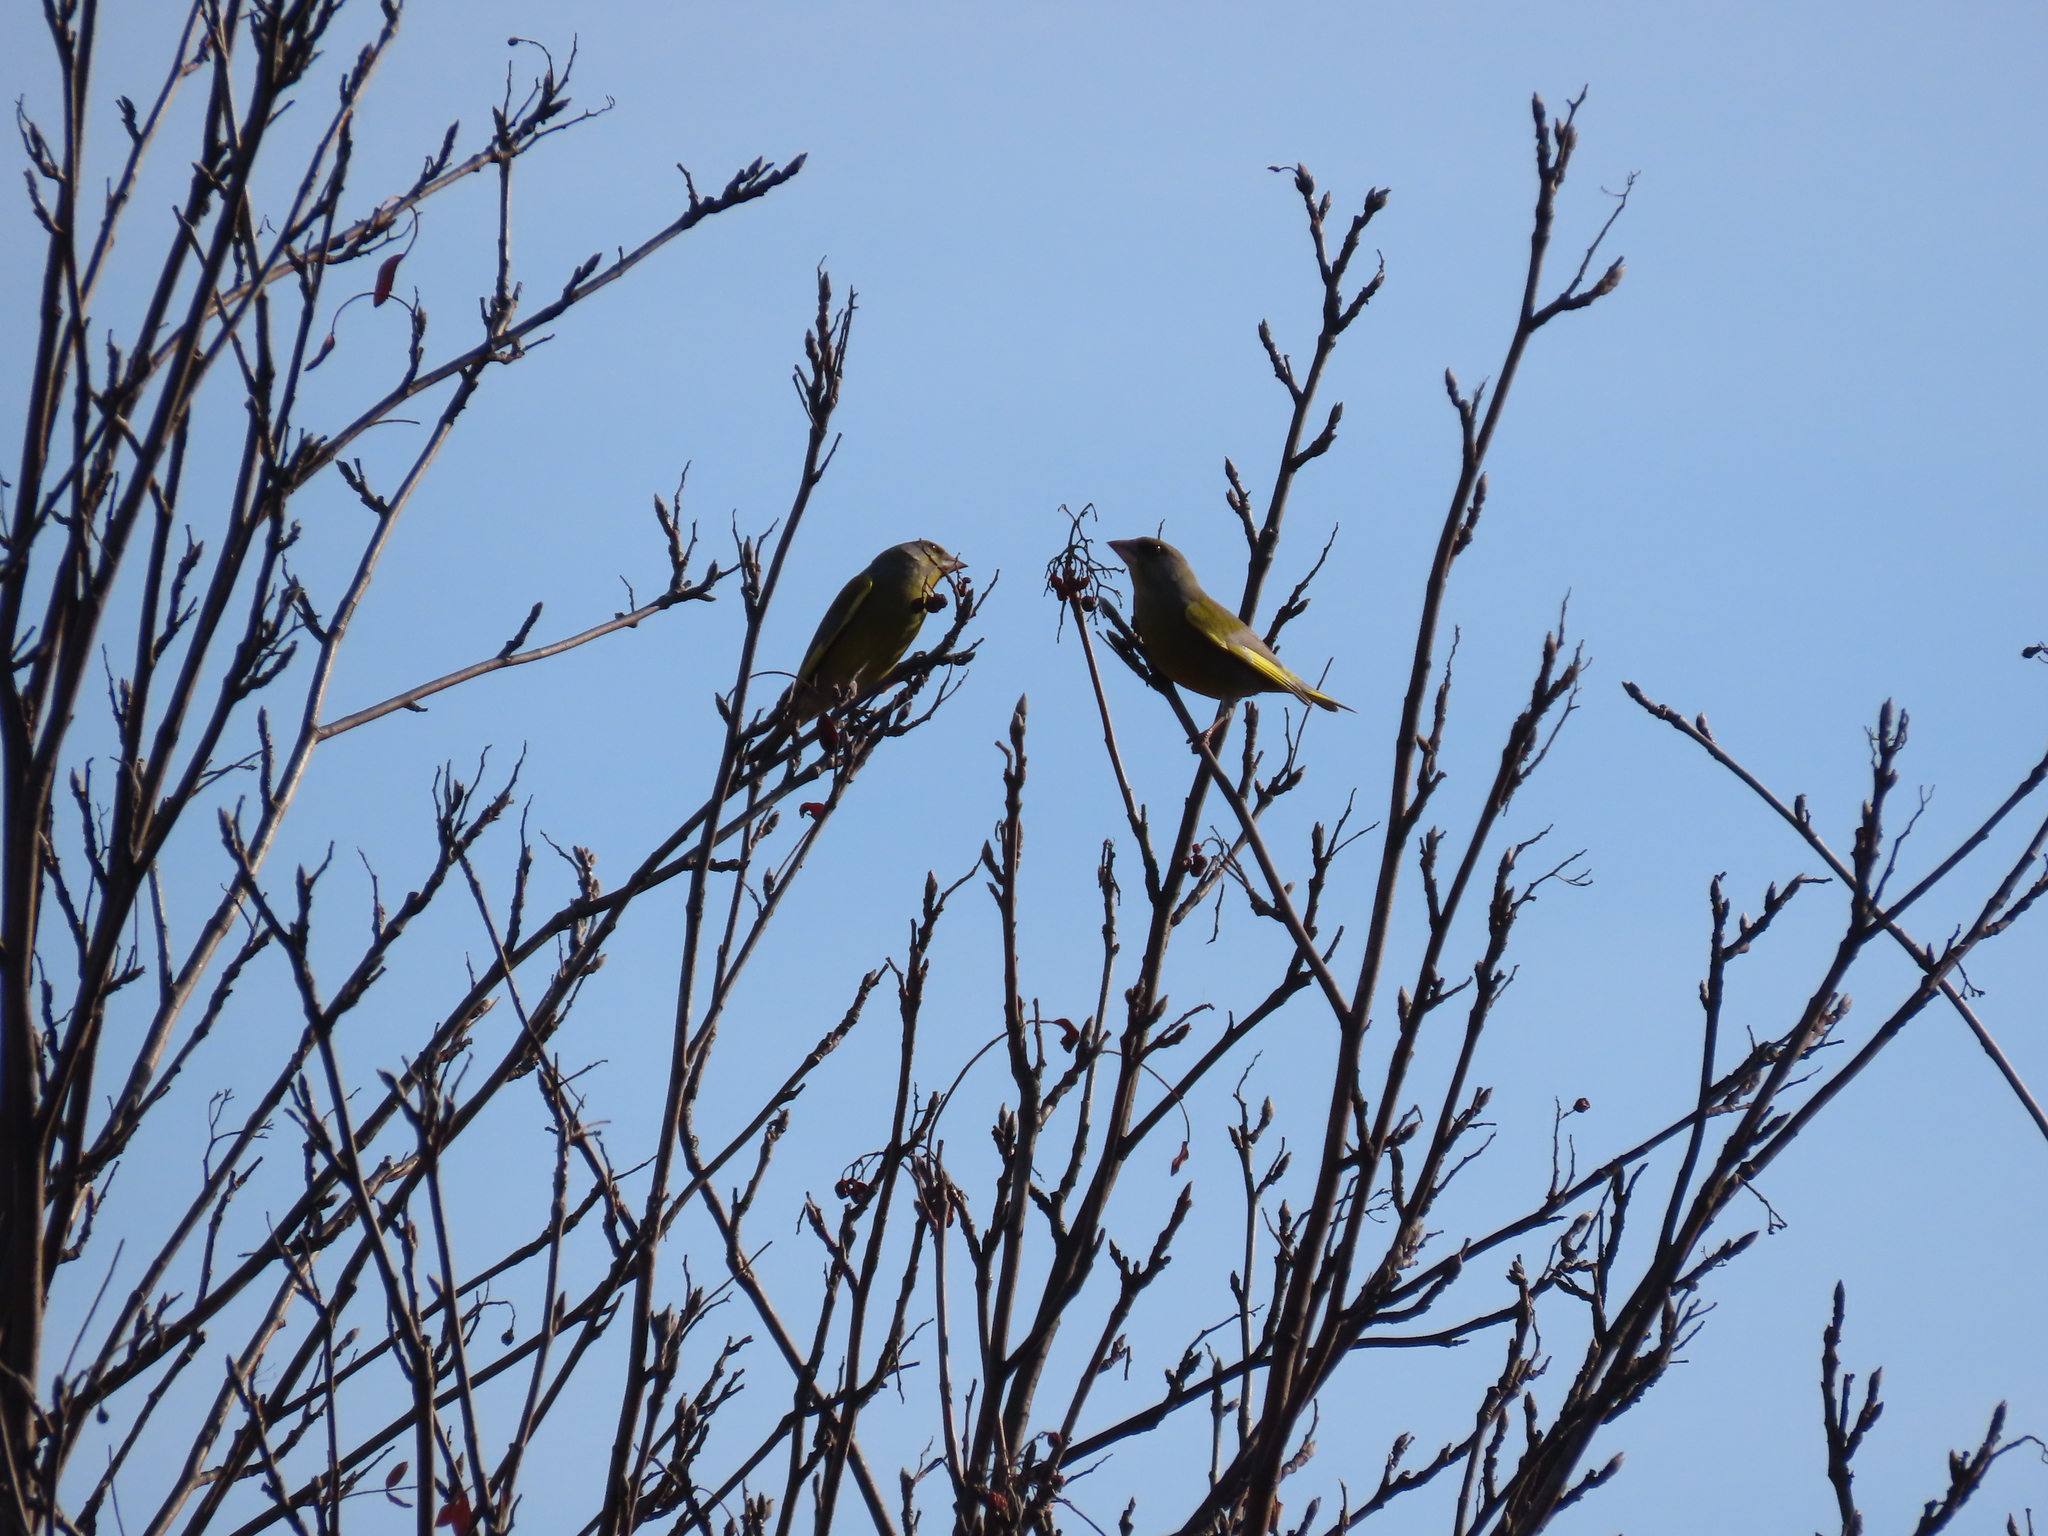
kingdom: Plantae
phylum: Tracheophyta
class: Liliopsida
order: Poales
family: Poaceae
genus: Chloris
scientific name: Chloris chloris
